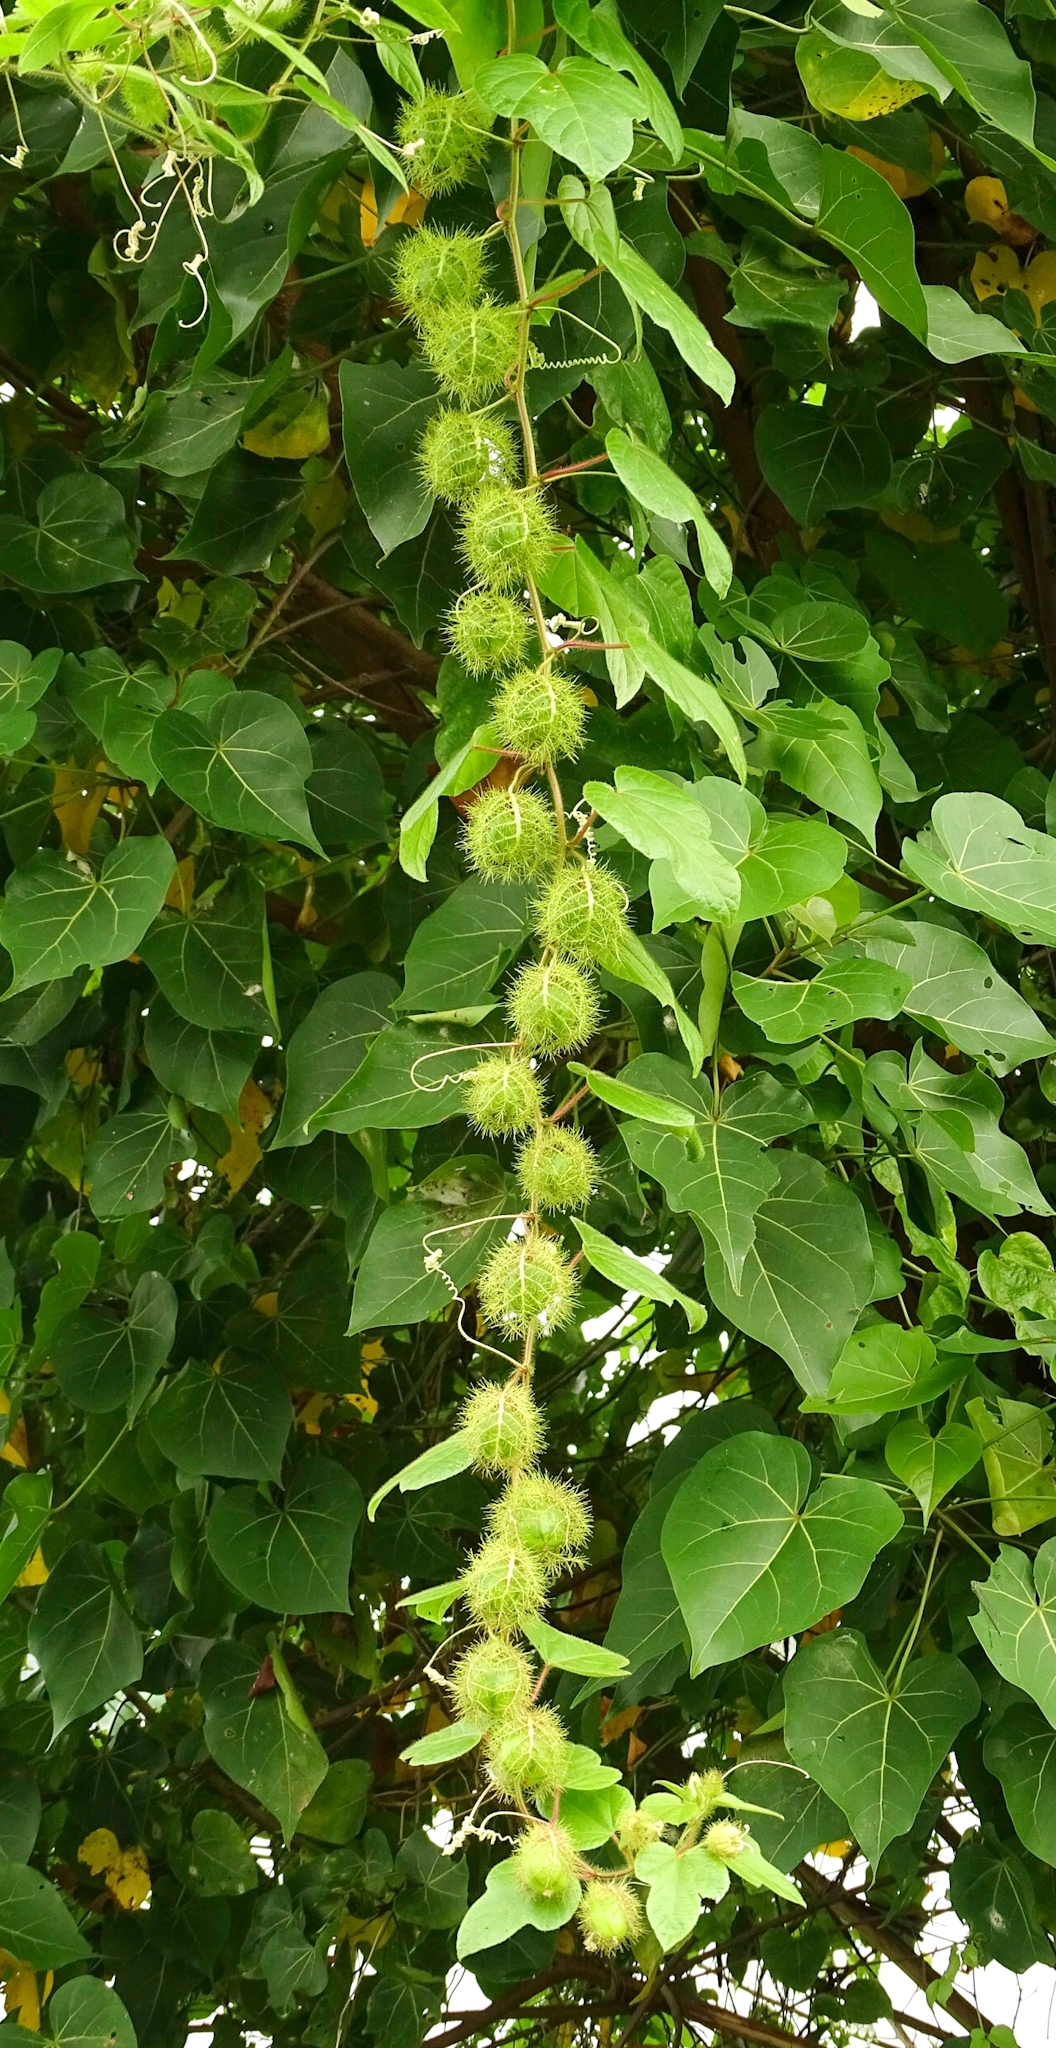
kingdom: Plantae
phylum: Tracheophyta
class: Magnoliopsida
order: Malpighiales
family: Passifloraceae
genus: Passiflora
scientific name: Passiflora foetida
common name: Fetid passionflower
